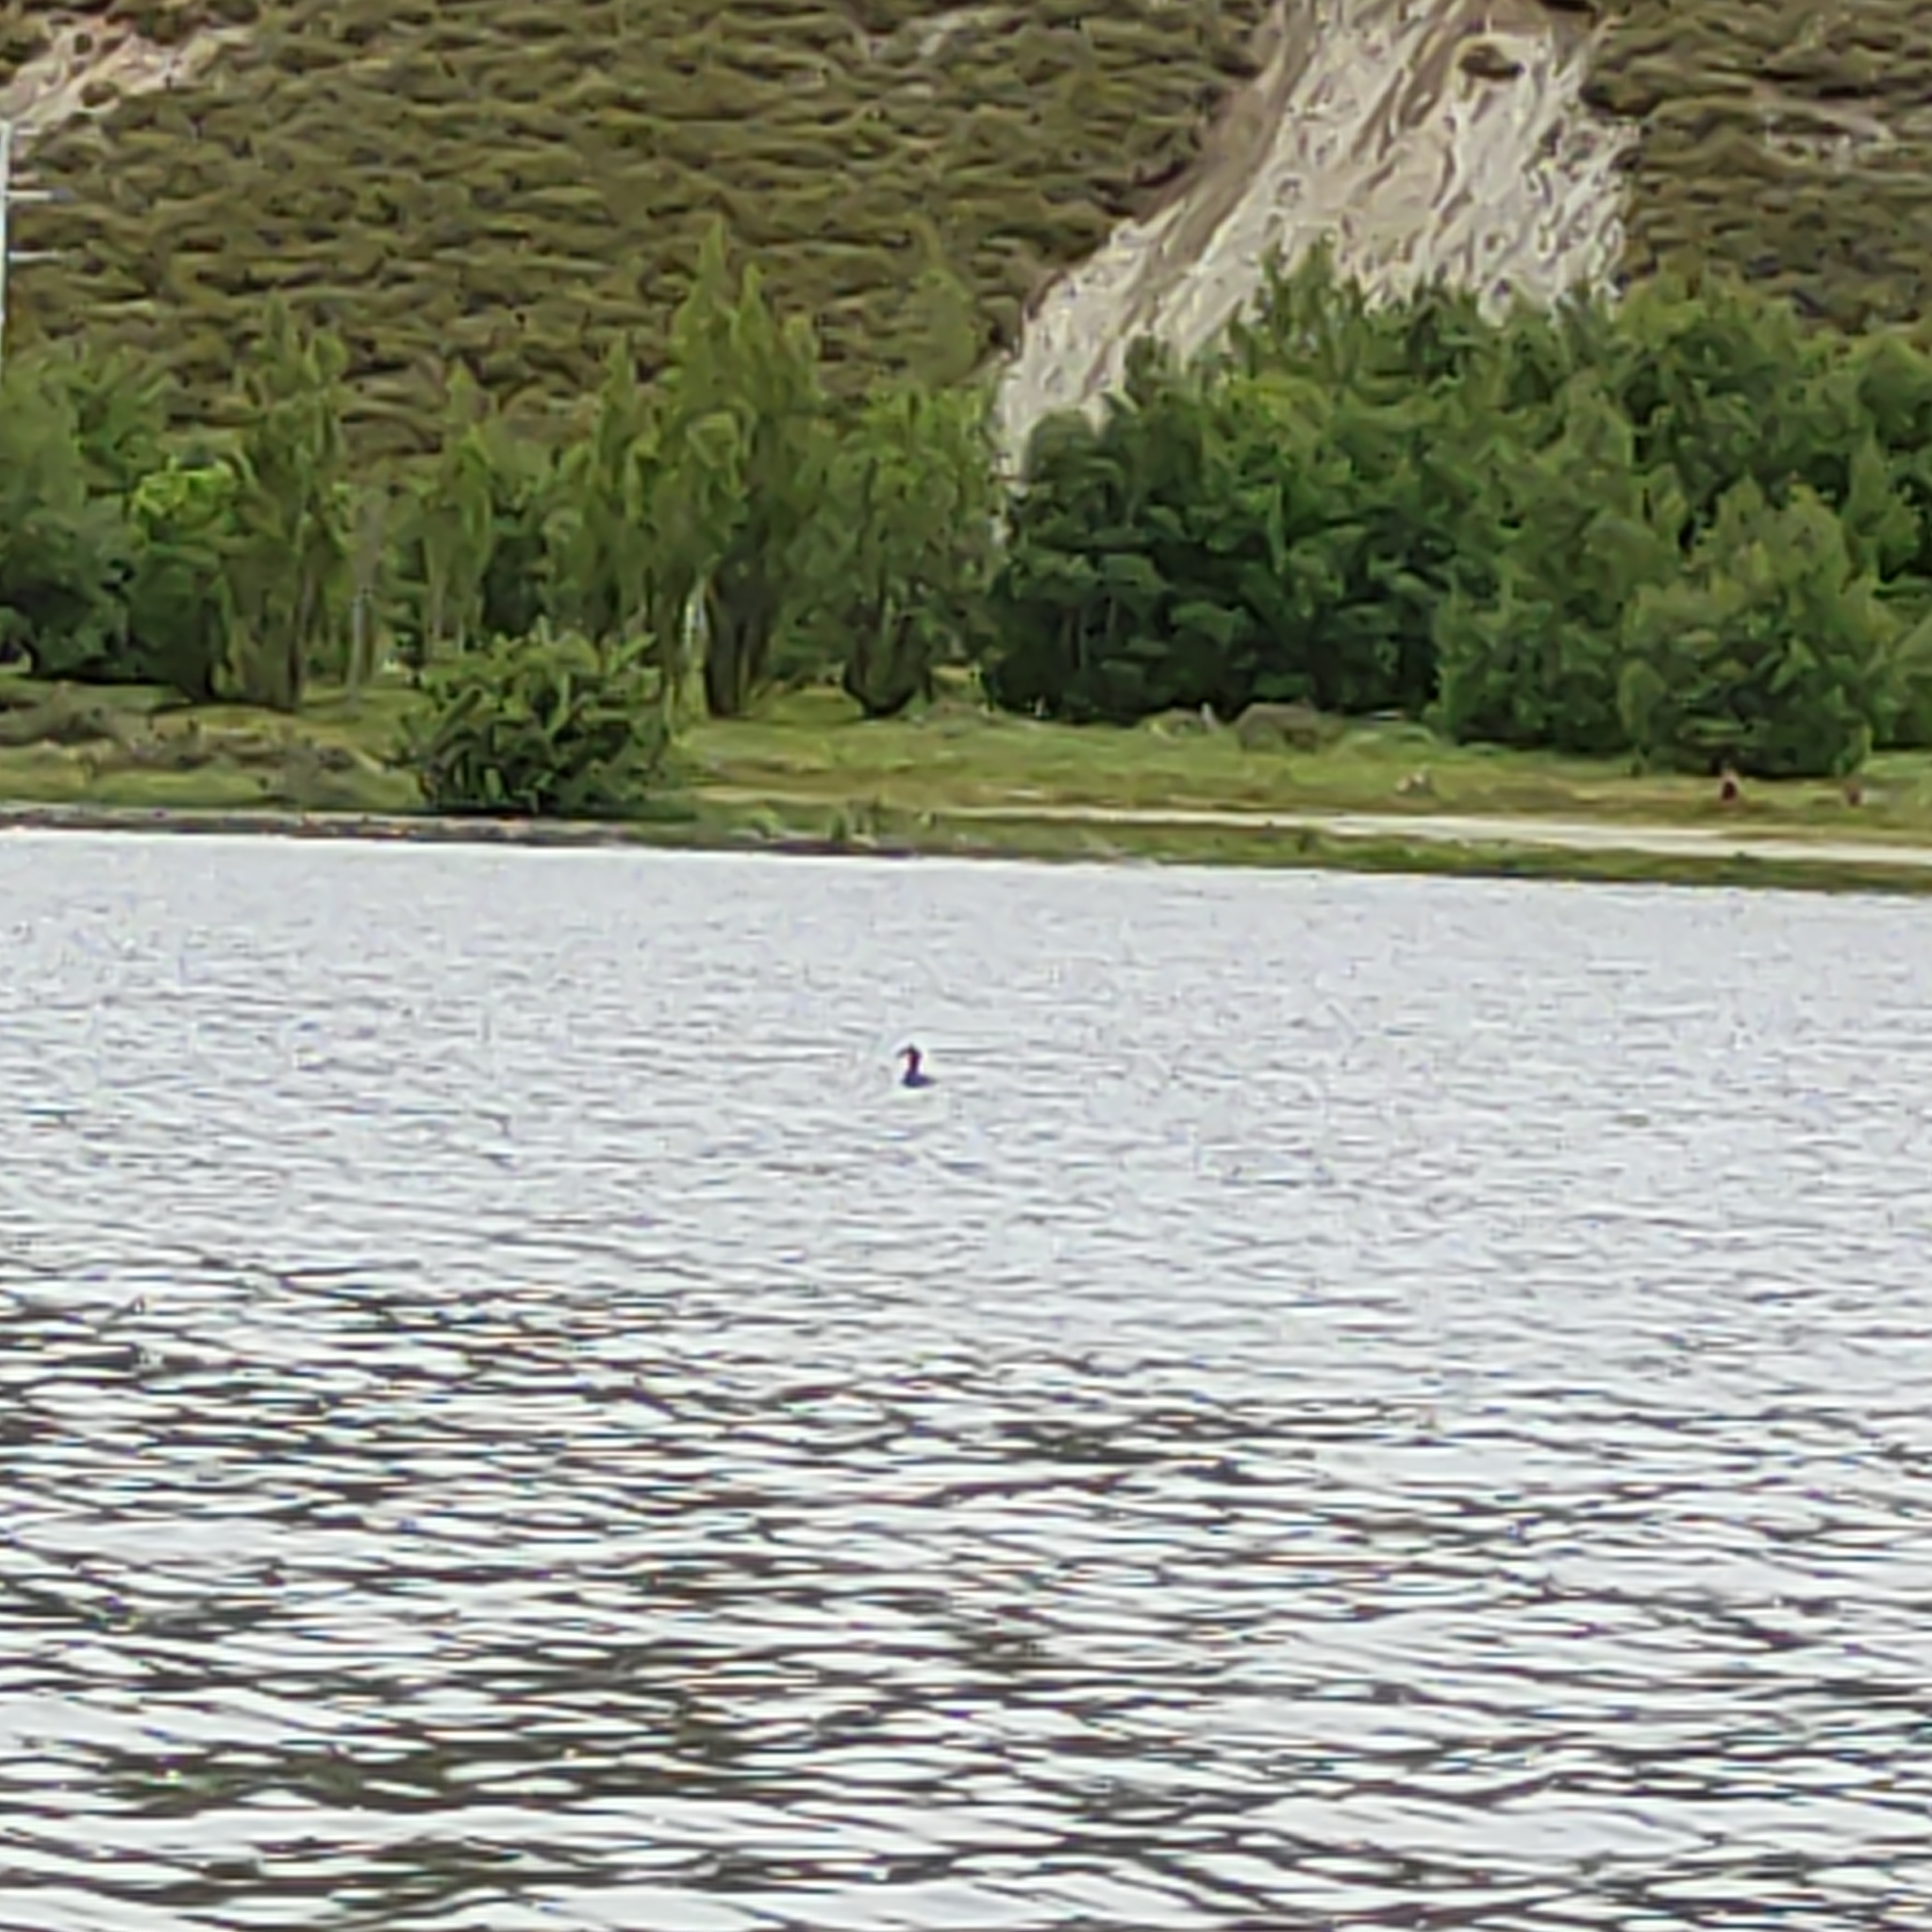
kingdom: Animalia
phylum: Chordata
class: Aves
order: Podicipediformes
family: Podicipedidae
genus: Podiceps
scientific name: Podiceps cristatus
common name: Great crested grebe
